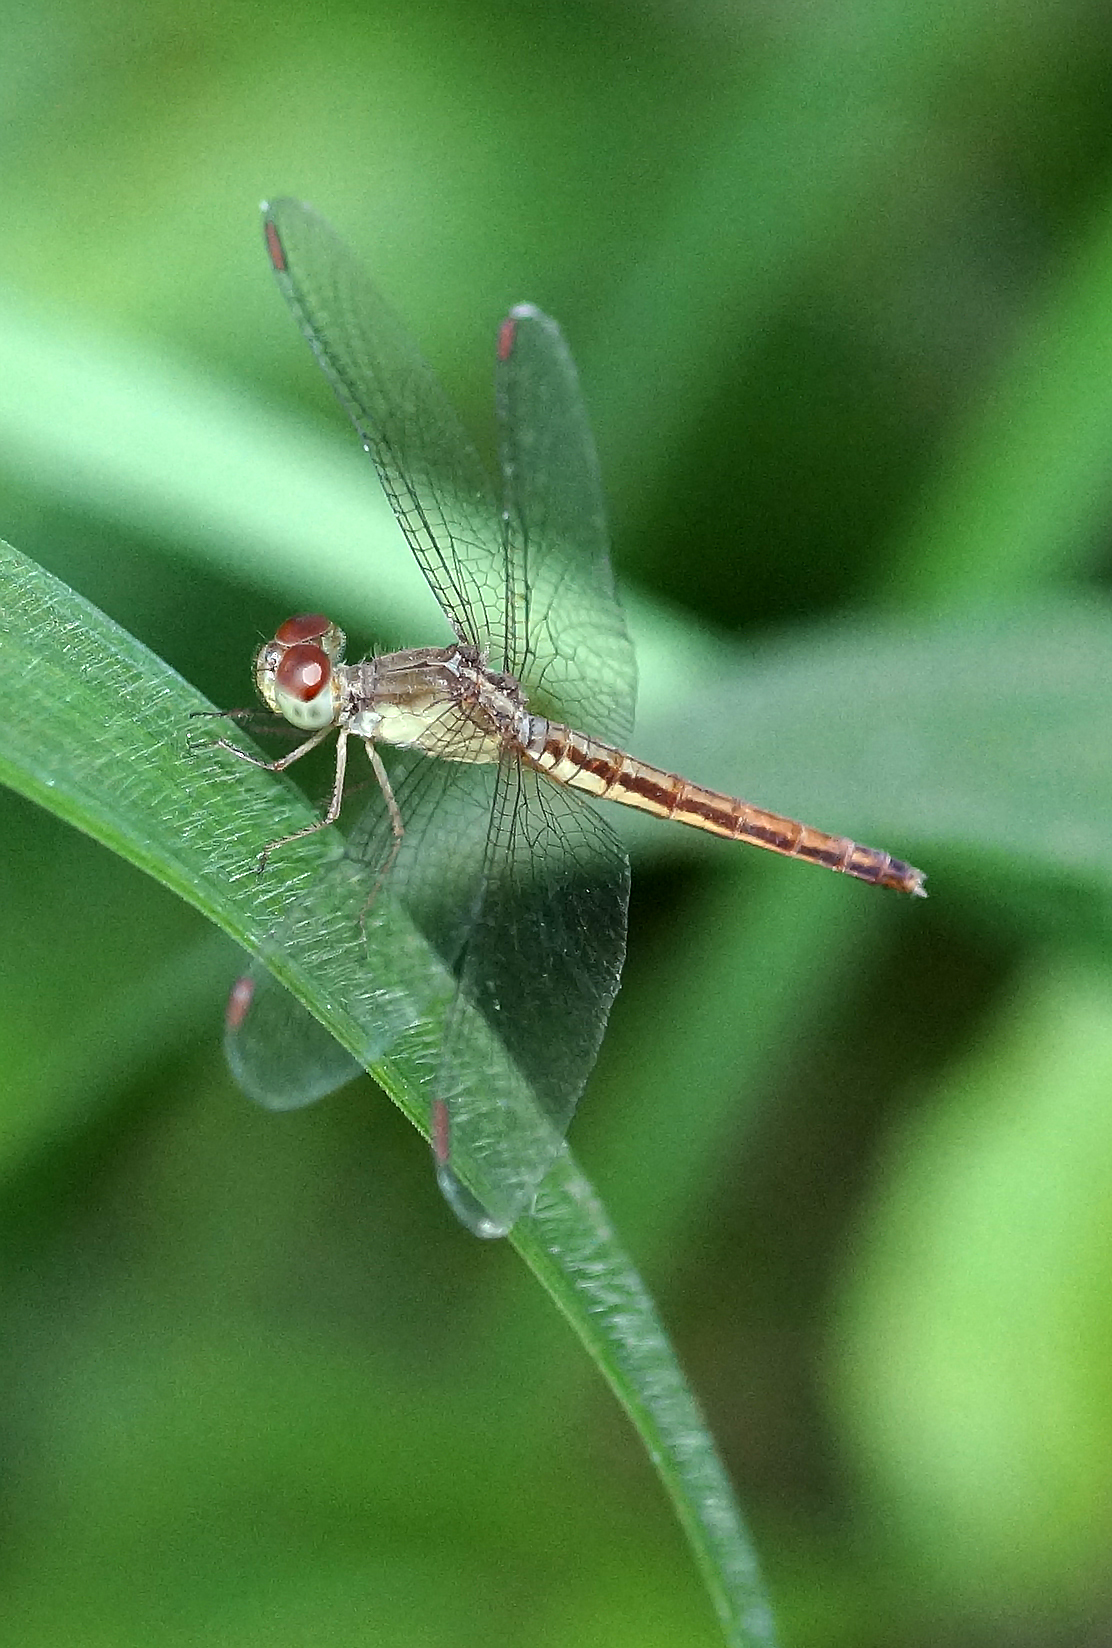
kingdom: Animalia
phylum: Arthropoda
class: Insecta
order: Odonata
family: Libellulidae
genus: Neurothemis
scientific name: Neurothemis intermedia
